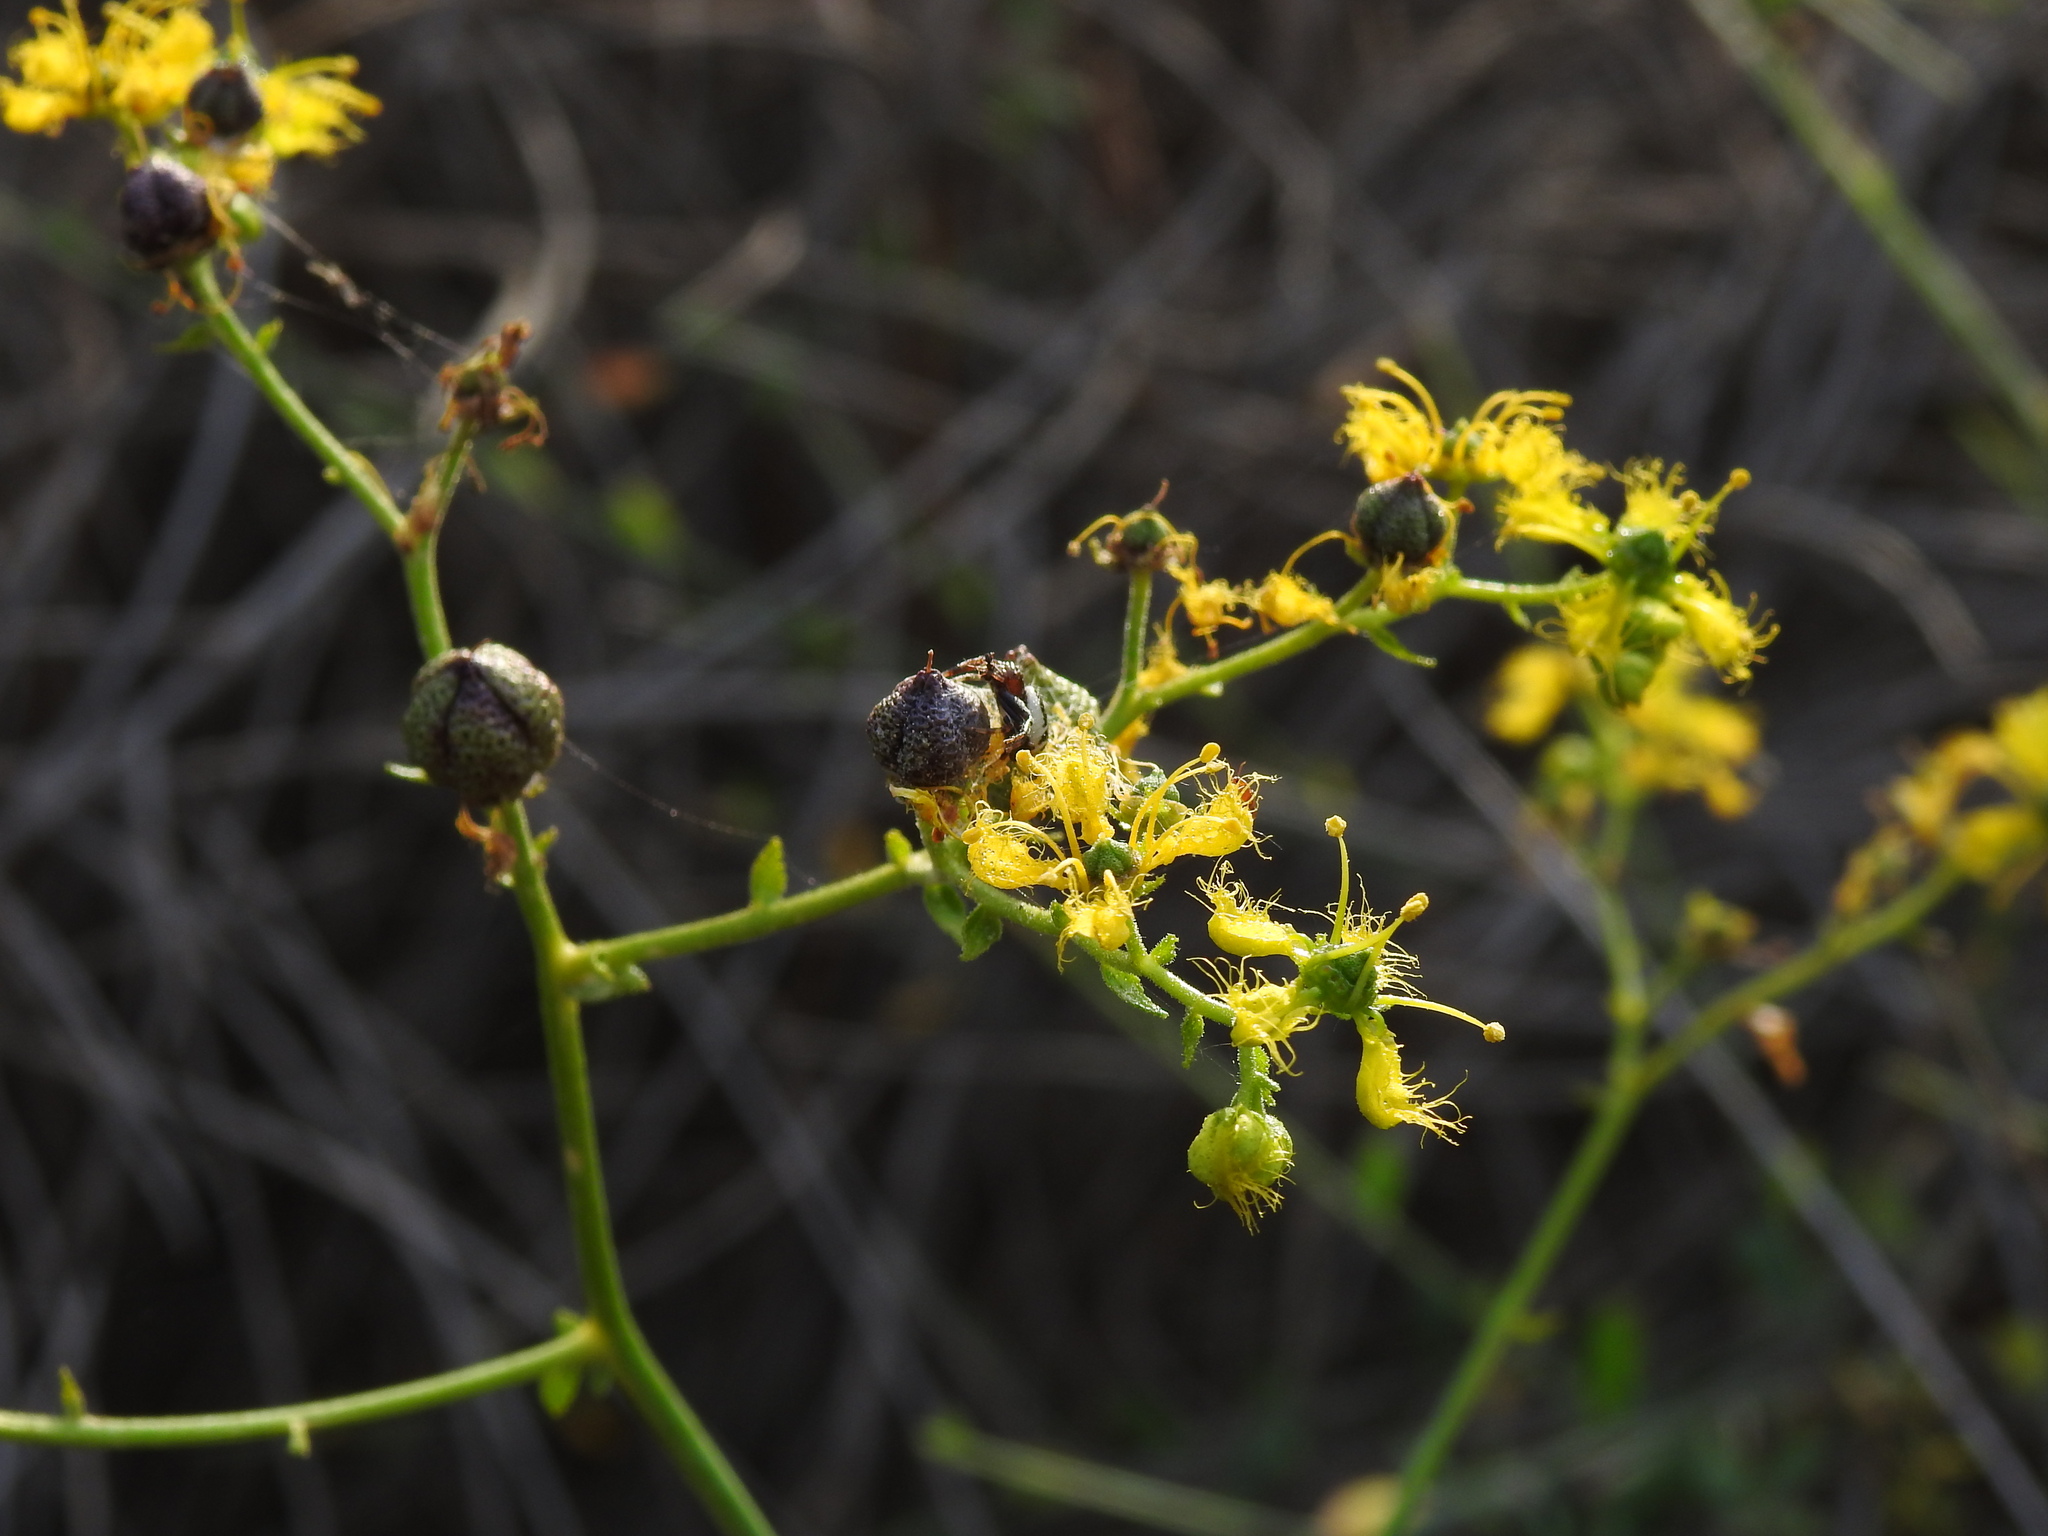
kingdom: Plantae
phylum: Tracheophyta
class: Magnoliopsida
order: Sapindales
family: Rutaceae
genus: Ruta
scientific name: Ruta angustifolia
